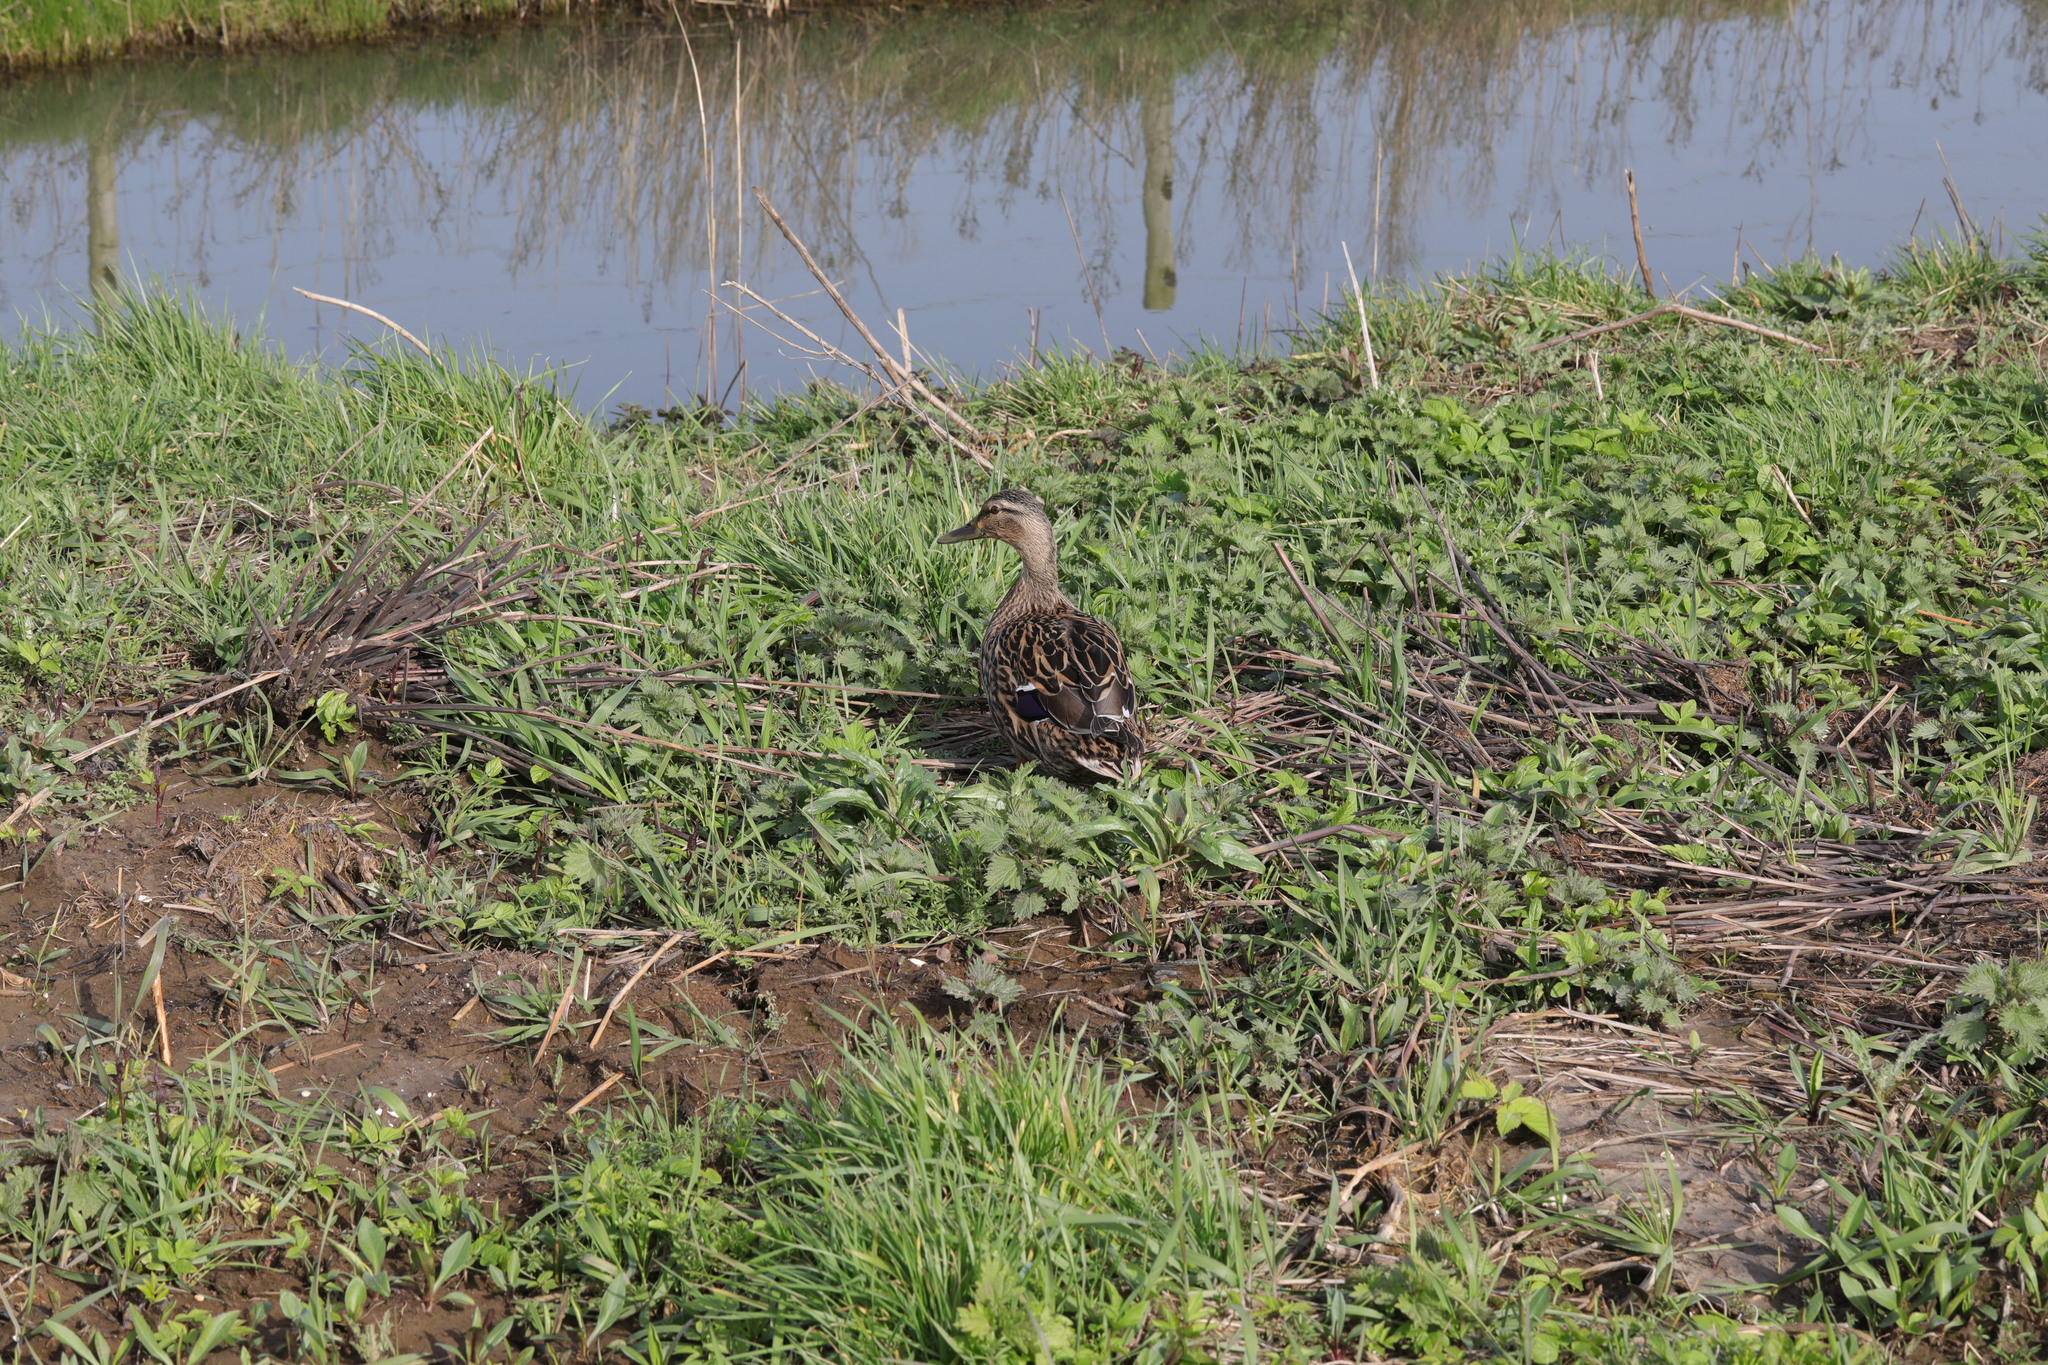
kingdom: Animalia
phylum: Chordata
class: Aves
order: Anseriformes
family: Anatidae
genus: Anas
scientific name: Anas platyrhynchos
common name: Mallard
